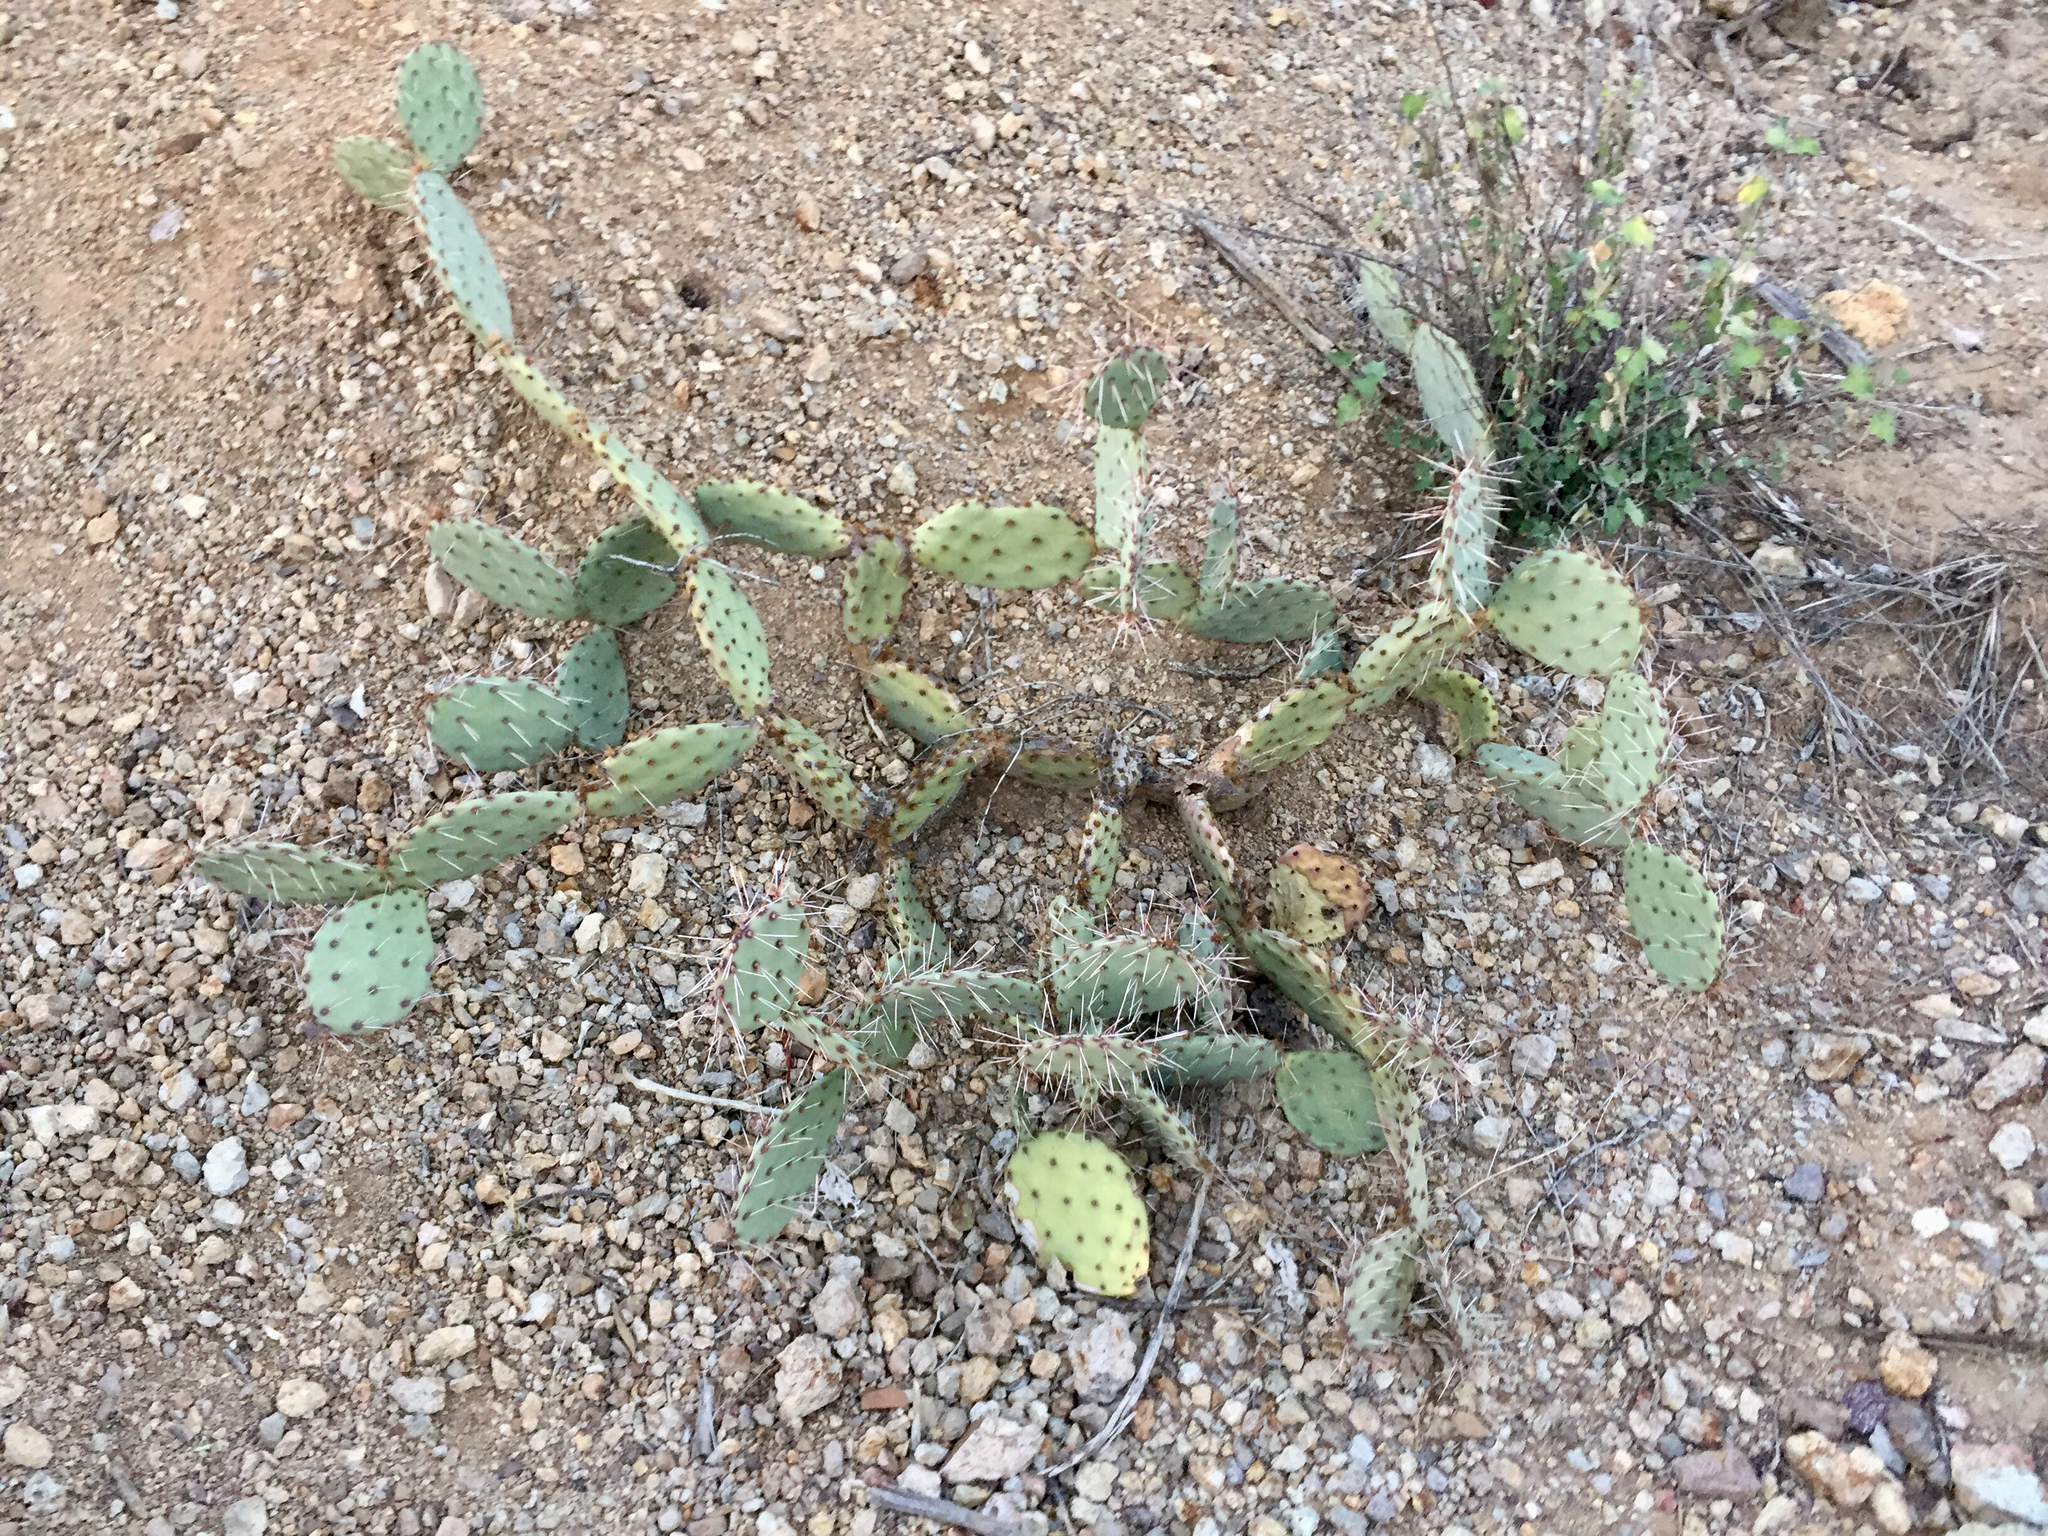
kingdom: Plantae
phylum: Tracheophyta
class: Magnoliopsida
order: Caryophyllales
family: Cactaceae
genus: Opuntia
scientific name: Opuntia phaeacantha
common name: New mexico prickly-pear
